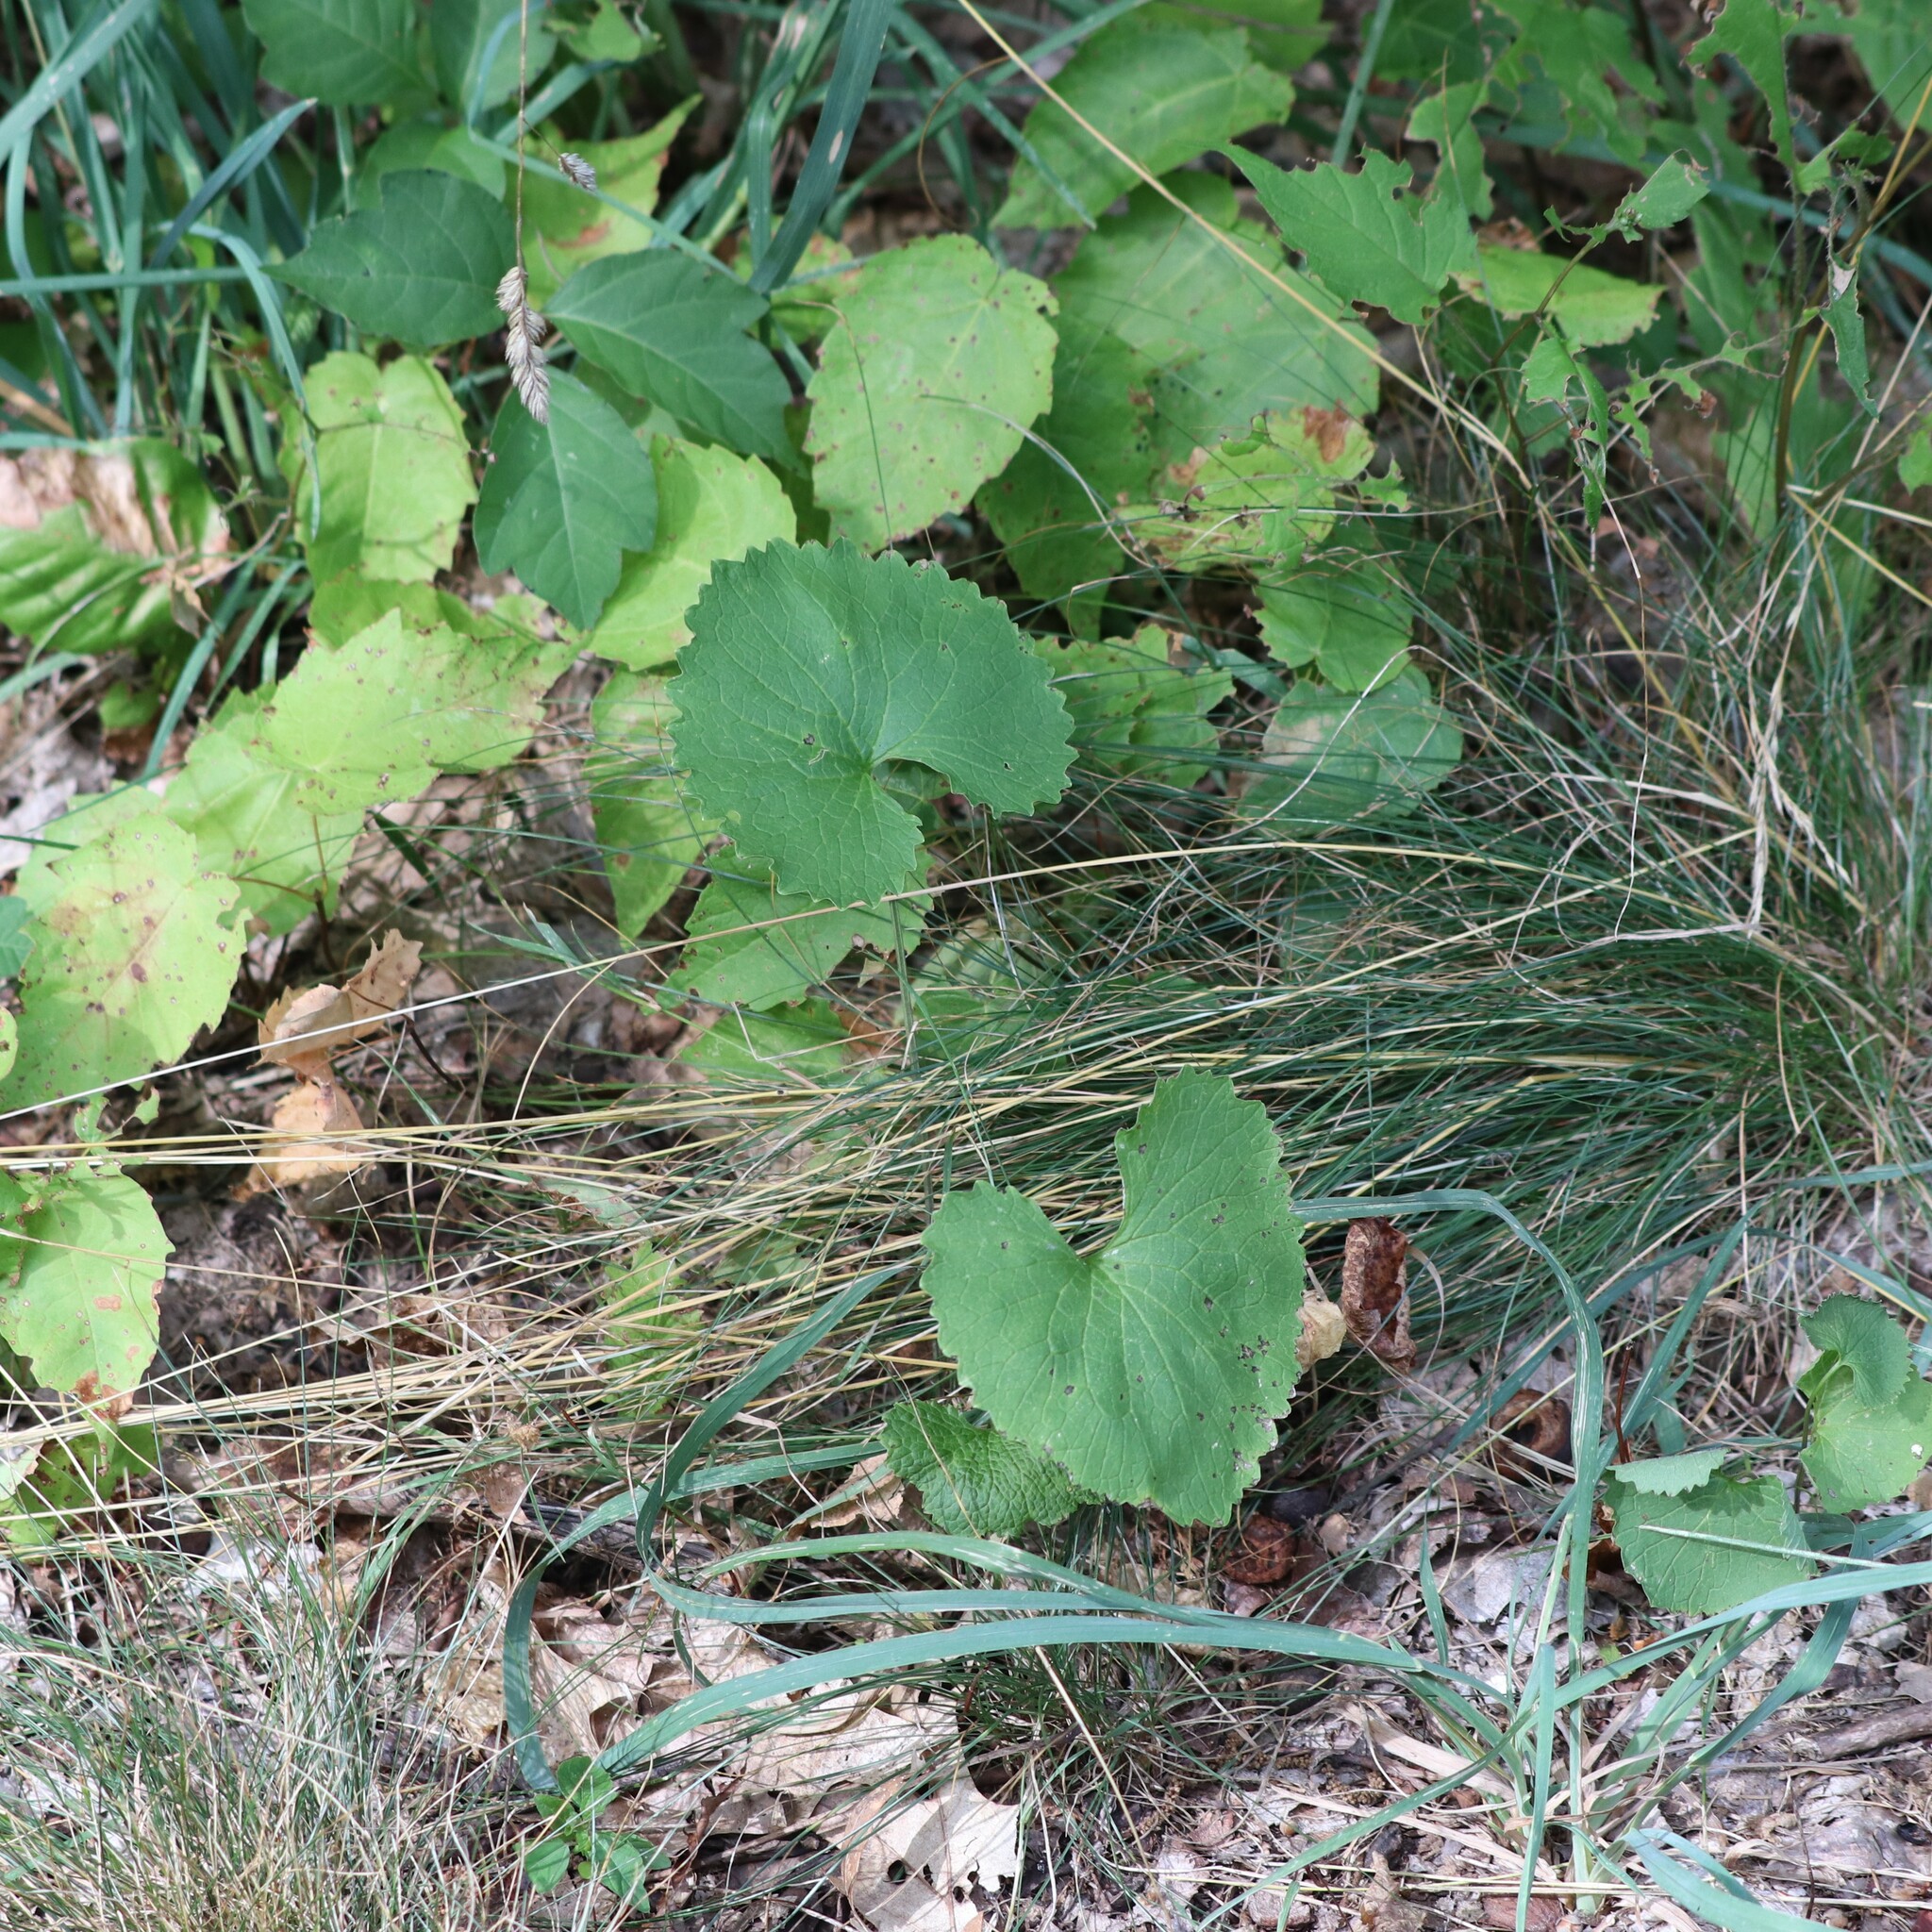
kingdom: Plantae
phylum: Tracheophyta
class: Magnoliopsida
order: Brassicales
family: Brassicaceae
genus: Alliaria
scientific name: Alliaria petiolata
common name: Garlic mustard
